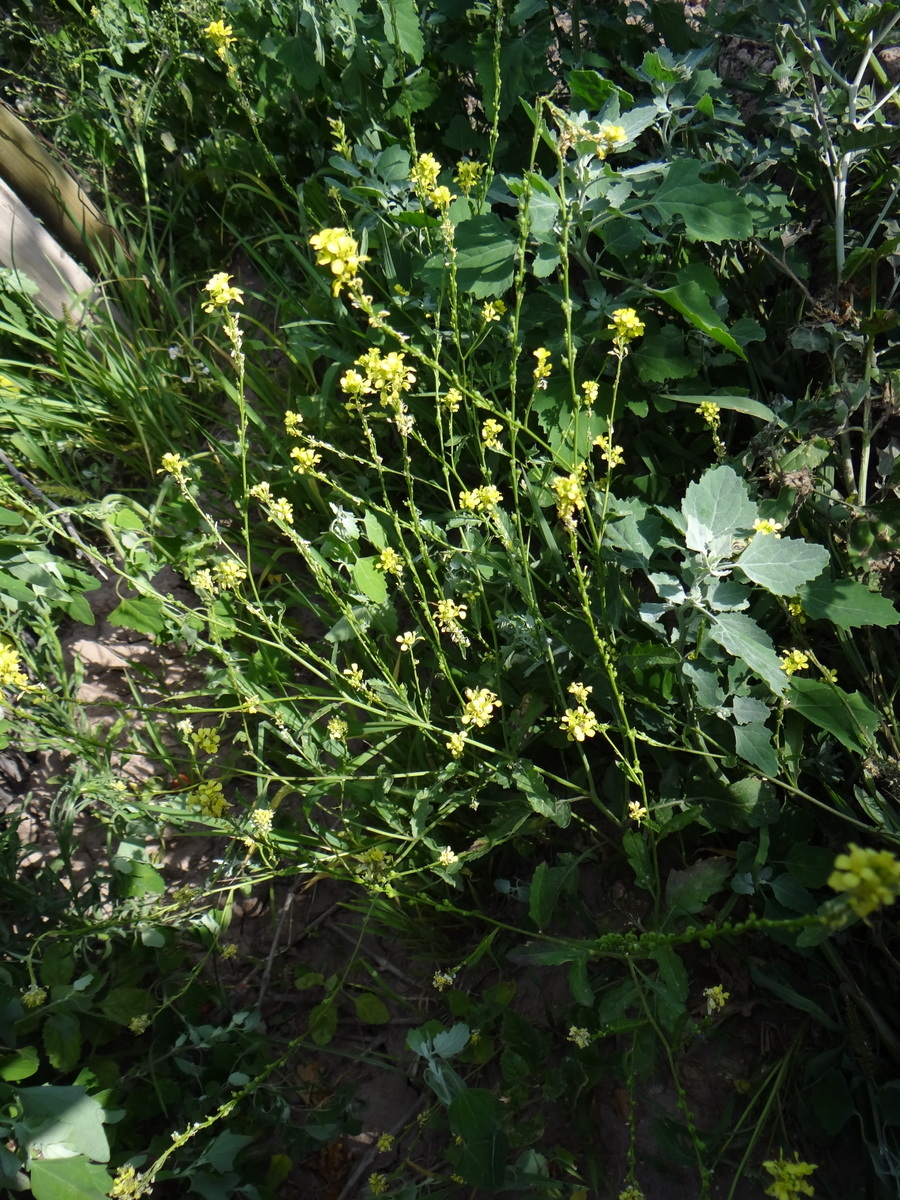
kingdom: Plantae
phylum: Tracheophyta
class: Magnoliopsida
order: Brassicales
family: Brassicaceae
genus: Rapistrum
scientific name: Rapistrum rugosum
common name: Annual bastardcabbage
